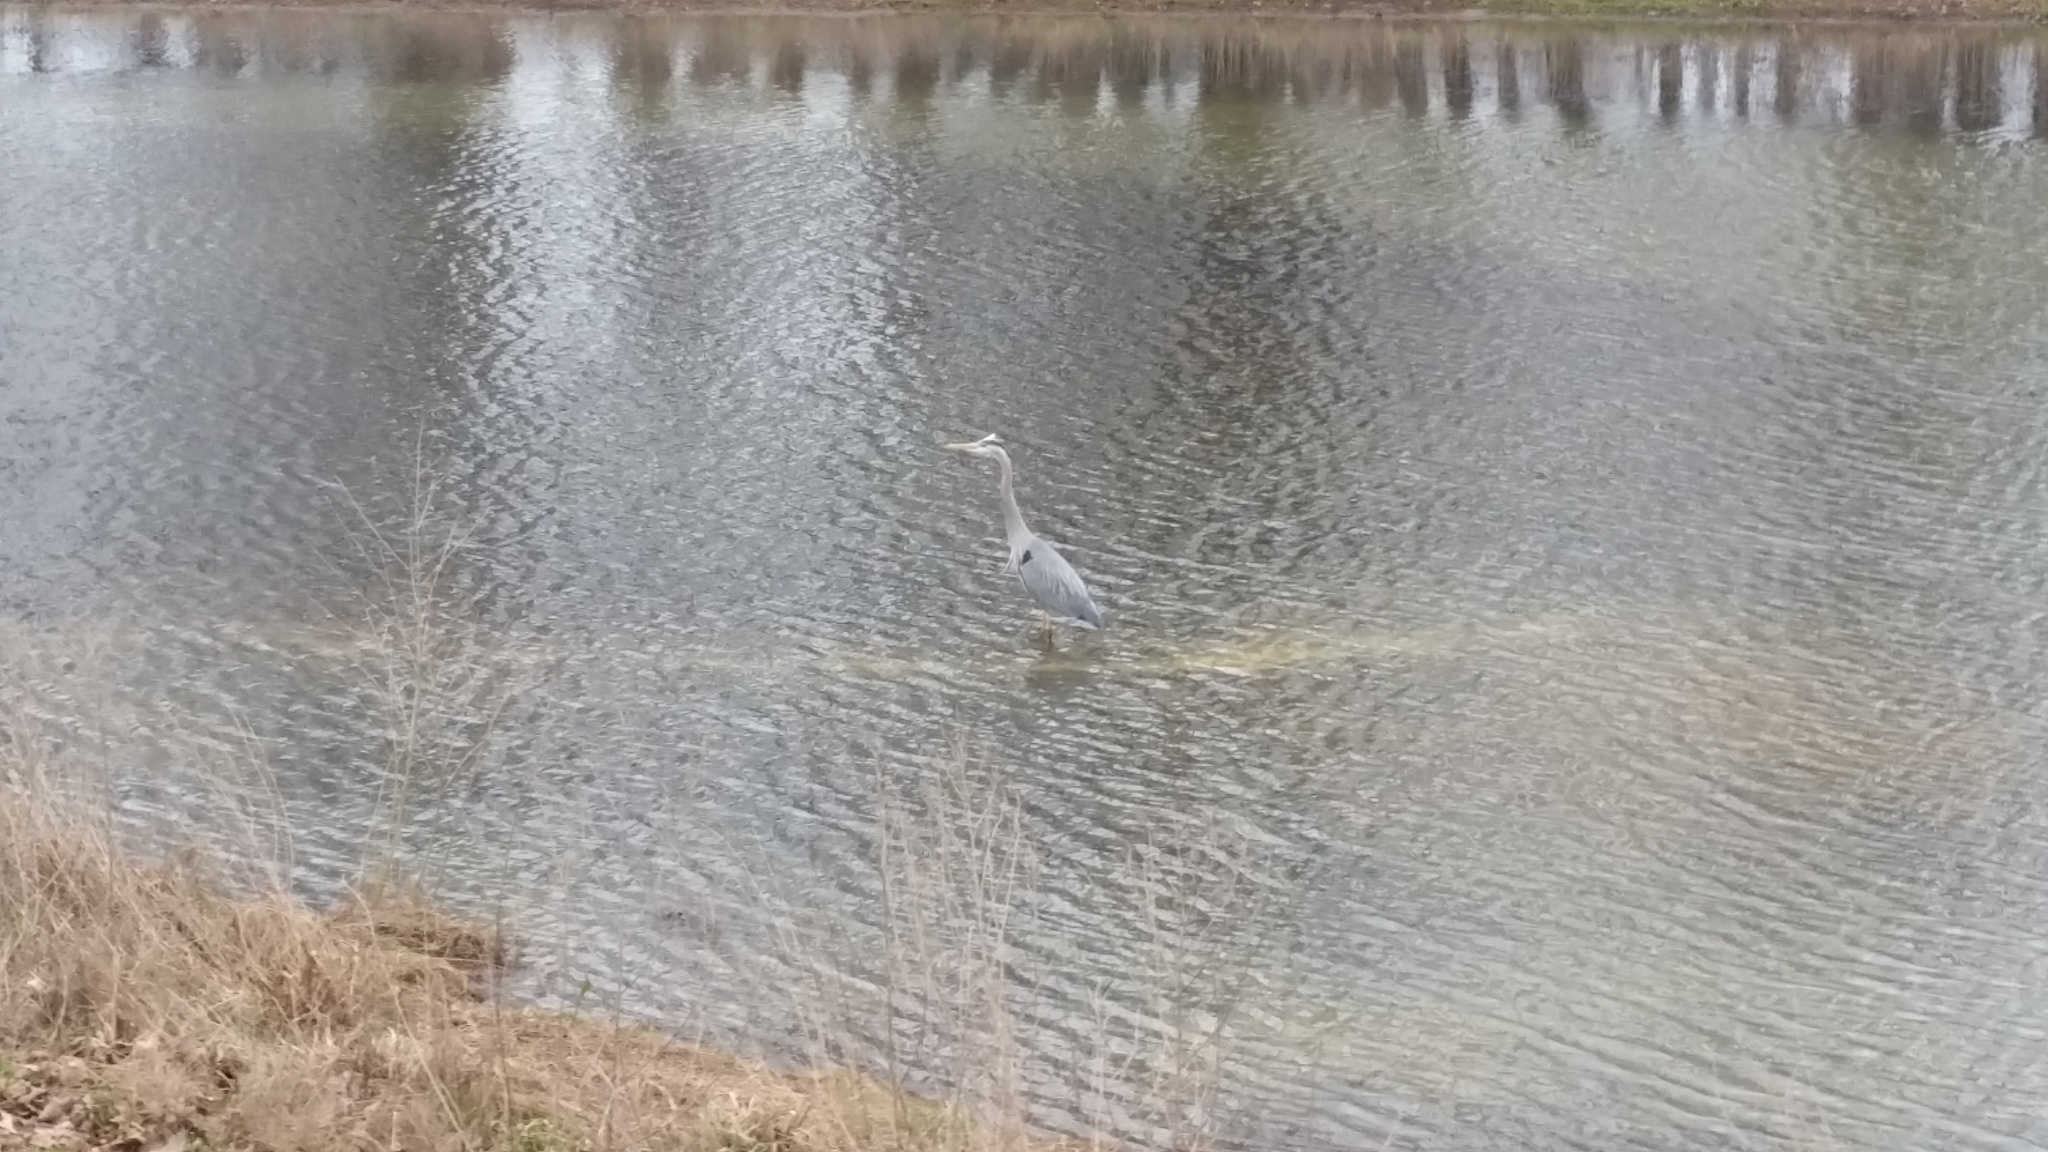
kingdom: Animalia
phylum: Chordata
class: Aves
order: Pelecaniformes
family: Ardeidae
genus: Ardea
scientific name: Ardea herodias
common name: Great blue heron
